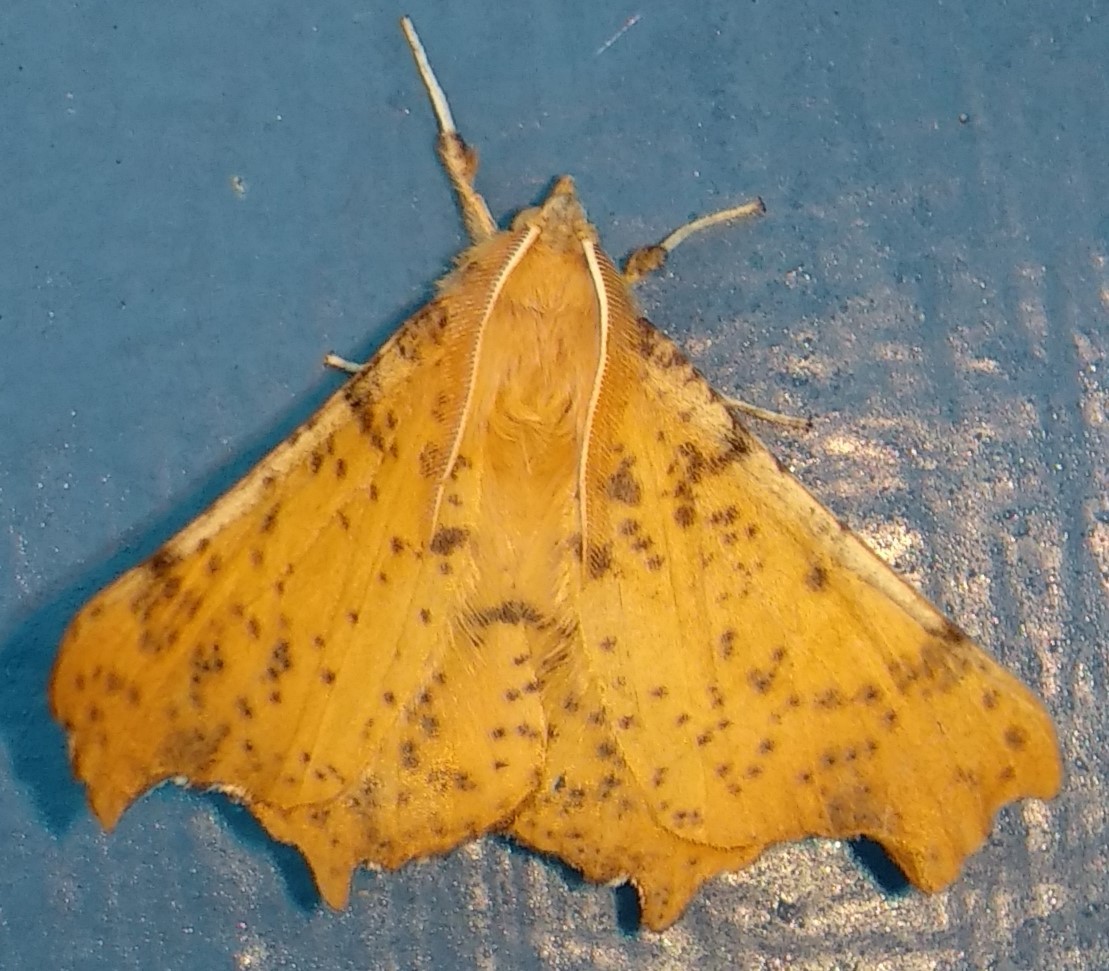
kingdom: Animalia
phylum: Arthropoda
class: Insecta
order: Lepidoptera
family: Geometridae
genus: Ennomos
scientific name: Ennomos magnaria
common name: Maple spanworm
